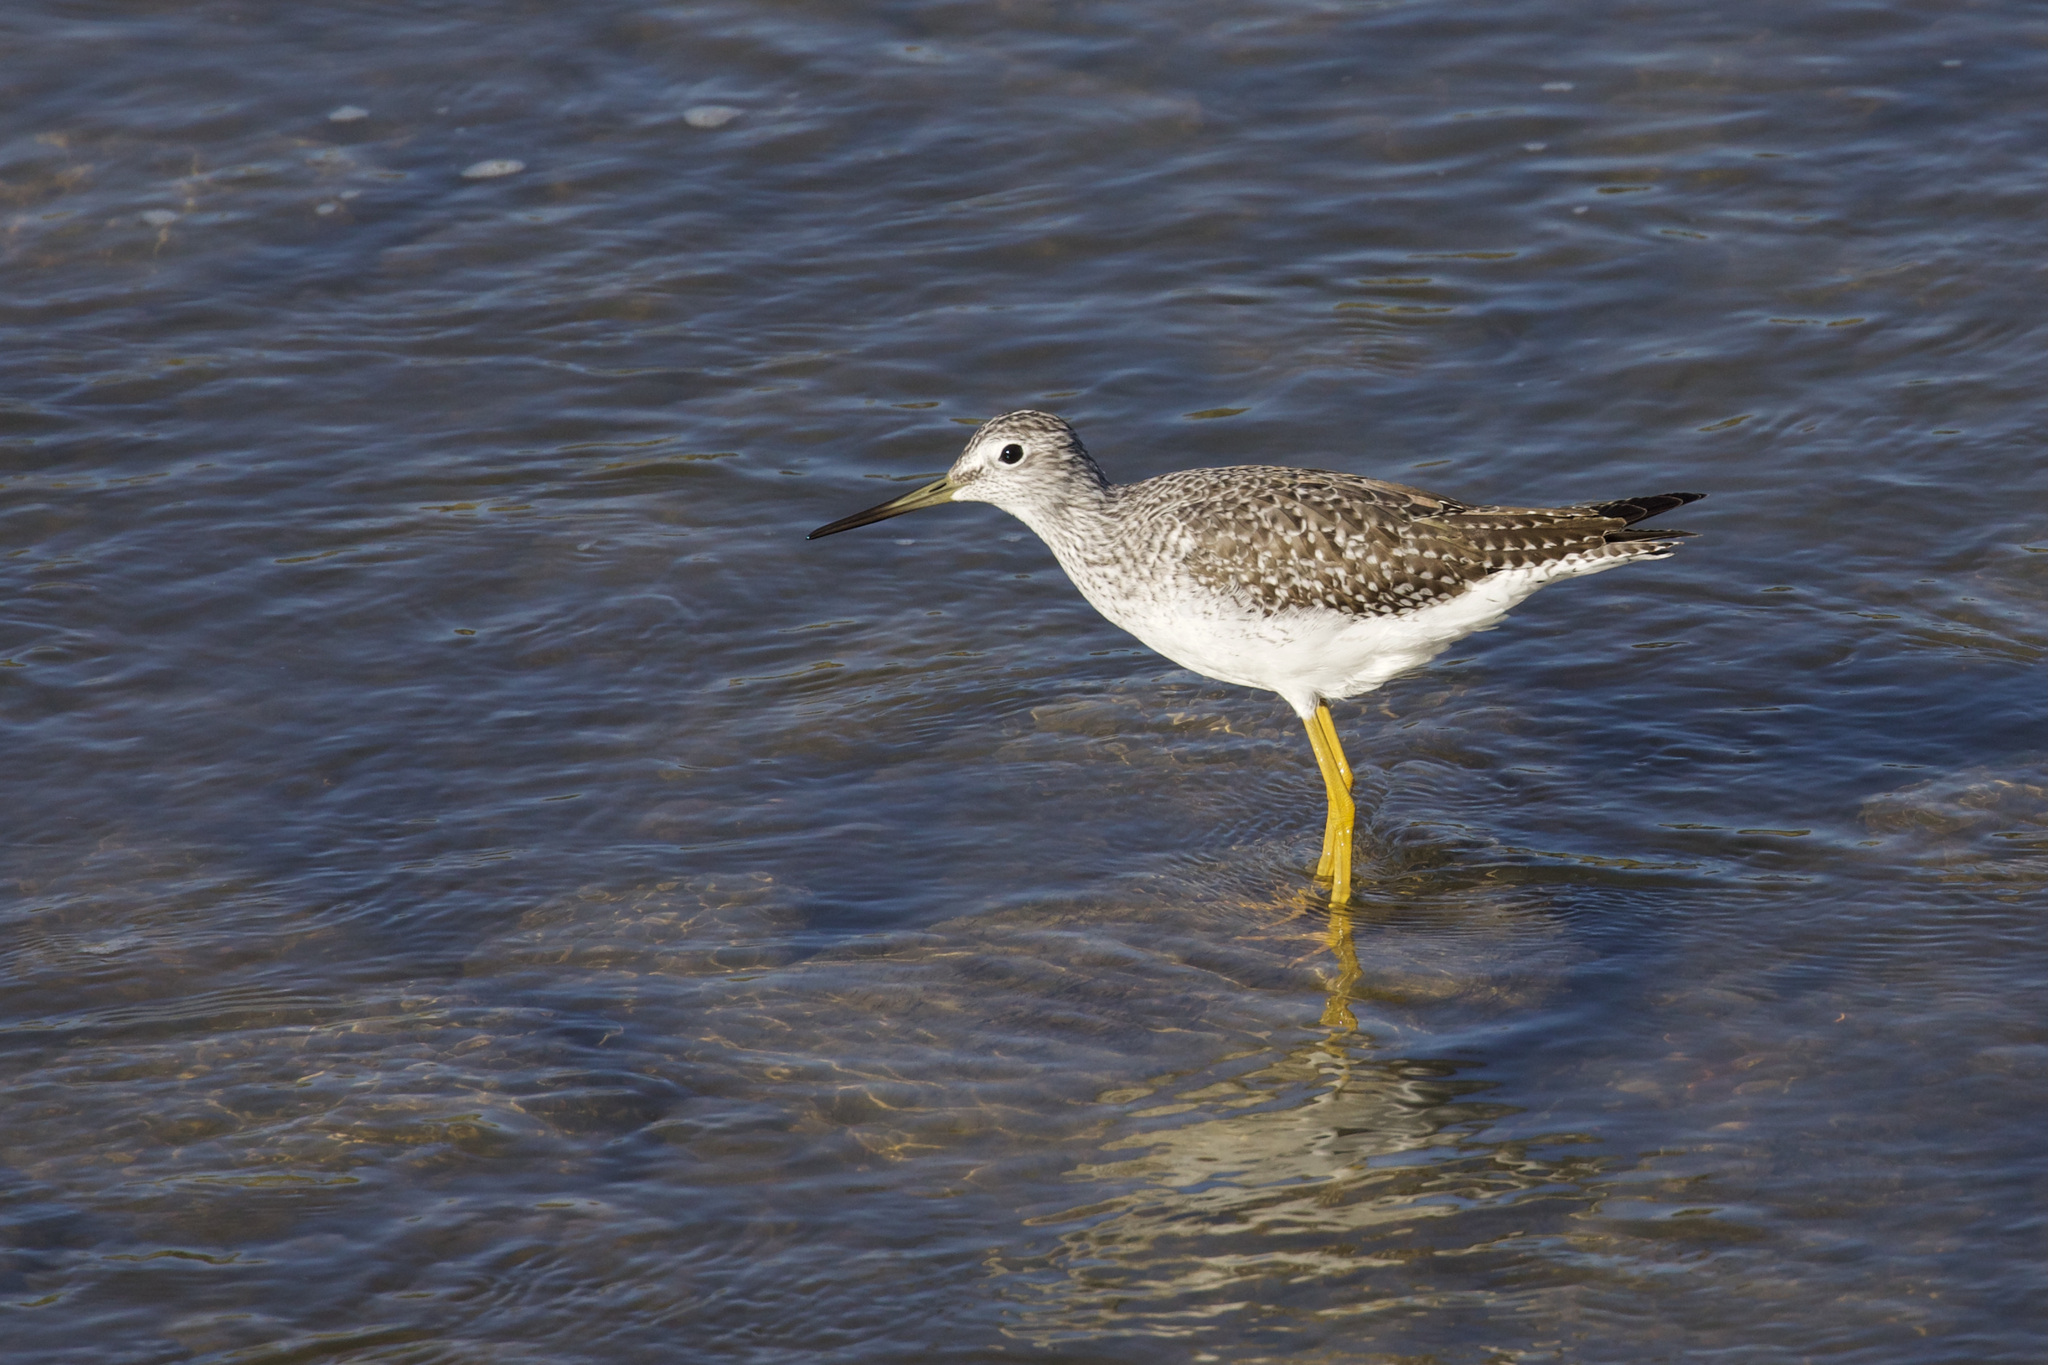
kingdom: Animalia
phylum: Chordata
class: Aves
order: Charadriiformes
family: Scolopacidae
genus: Tringa
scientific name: Tringa melanoleuca
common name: Greater yellowlegs
